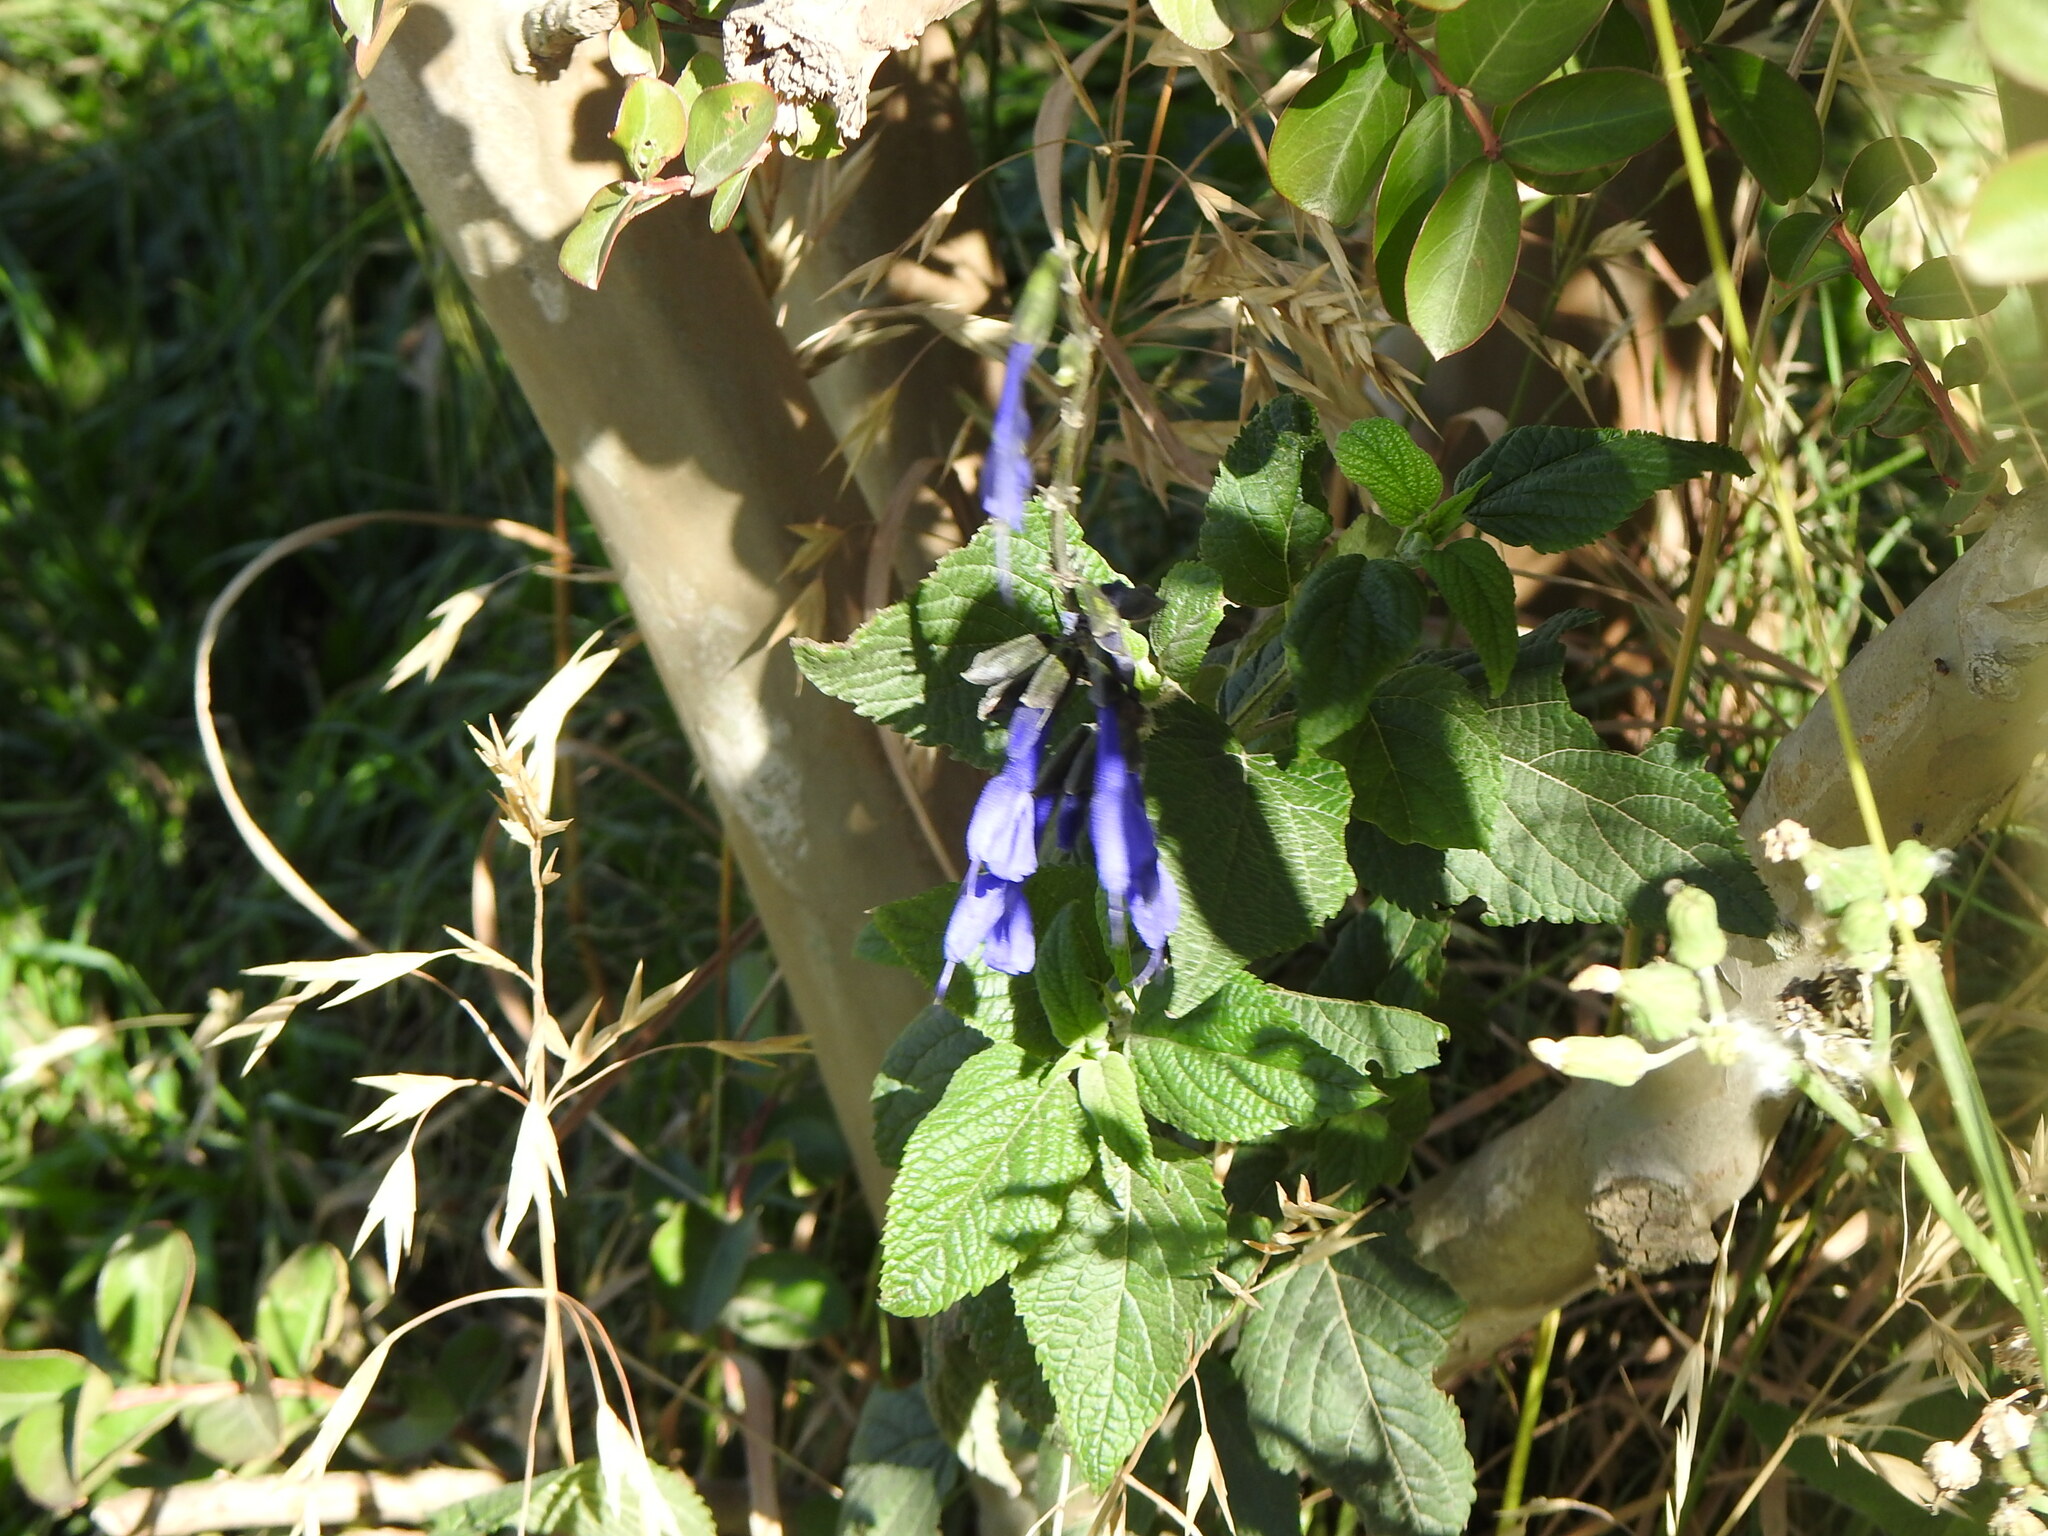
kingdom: Animalia
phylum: Chordata
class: Aves
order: Columbiformes
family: Columbidae
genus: Zenaida
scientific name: Zenaida auriculata
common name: Eared dove
